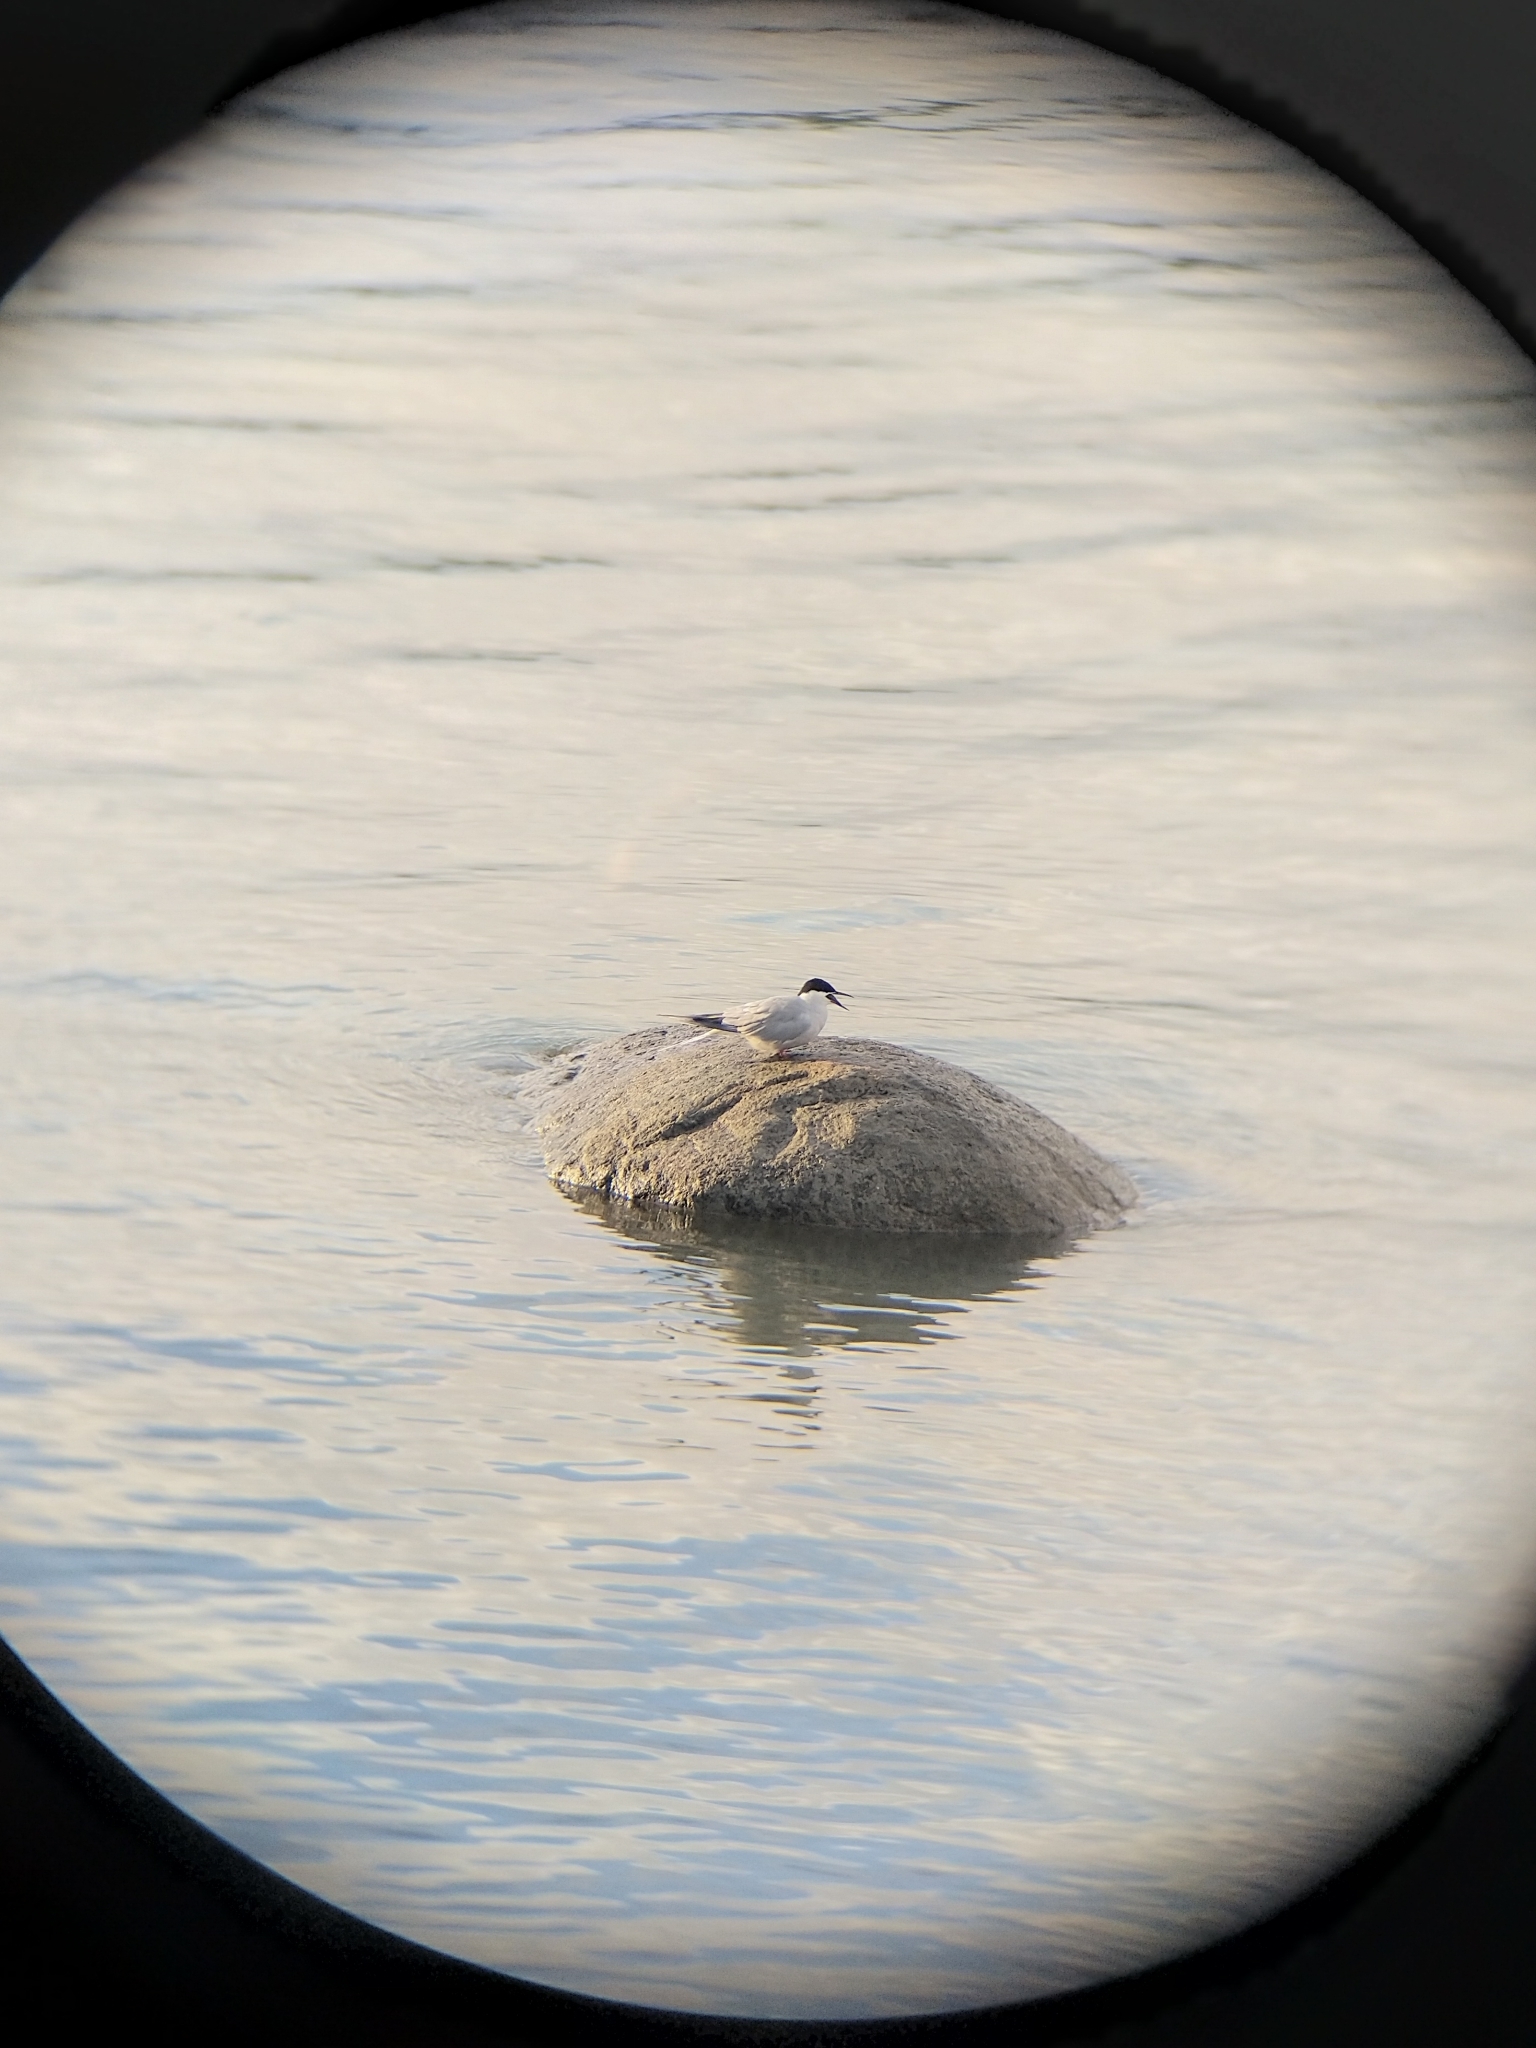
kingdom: Animalia
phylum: Chordata
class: Aves
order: Charadriiformes
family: Laridae
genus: Sterna
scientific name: Sterna hirundo
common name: Common tern
